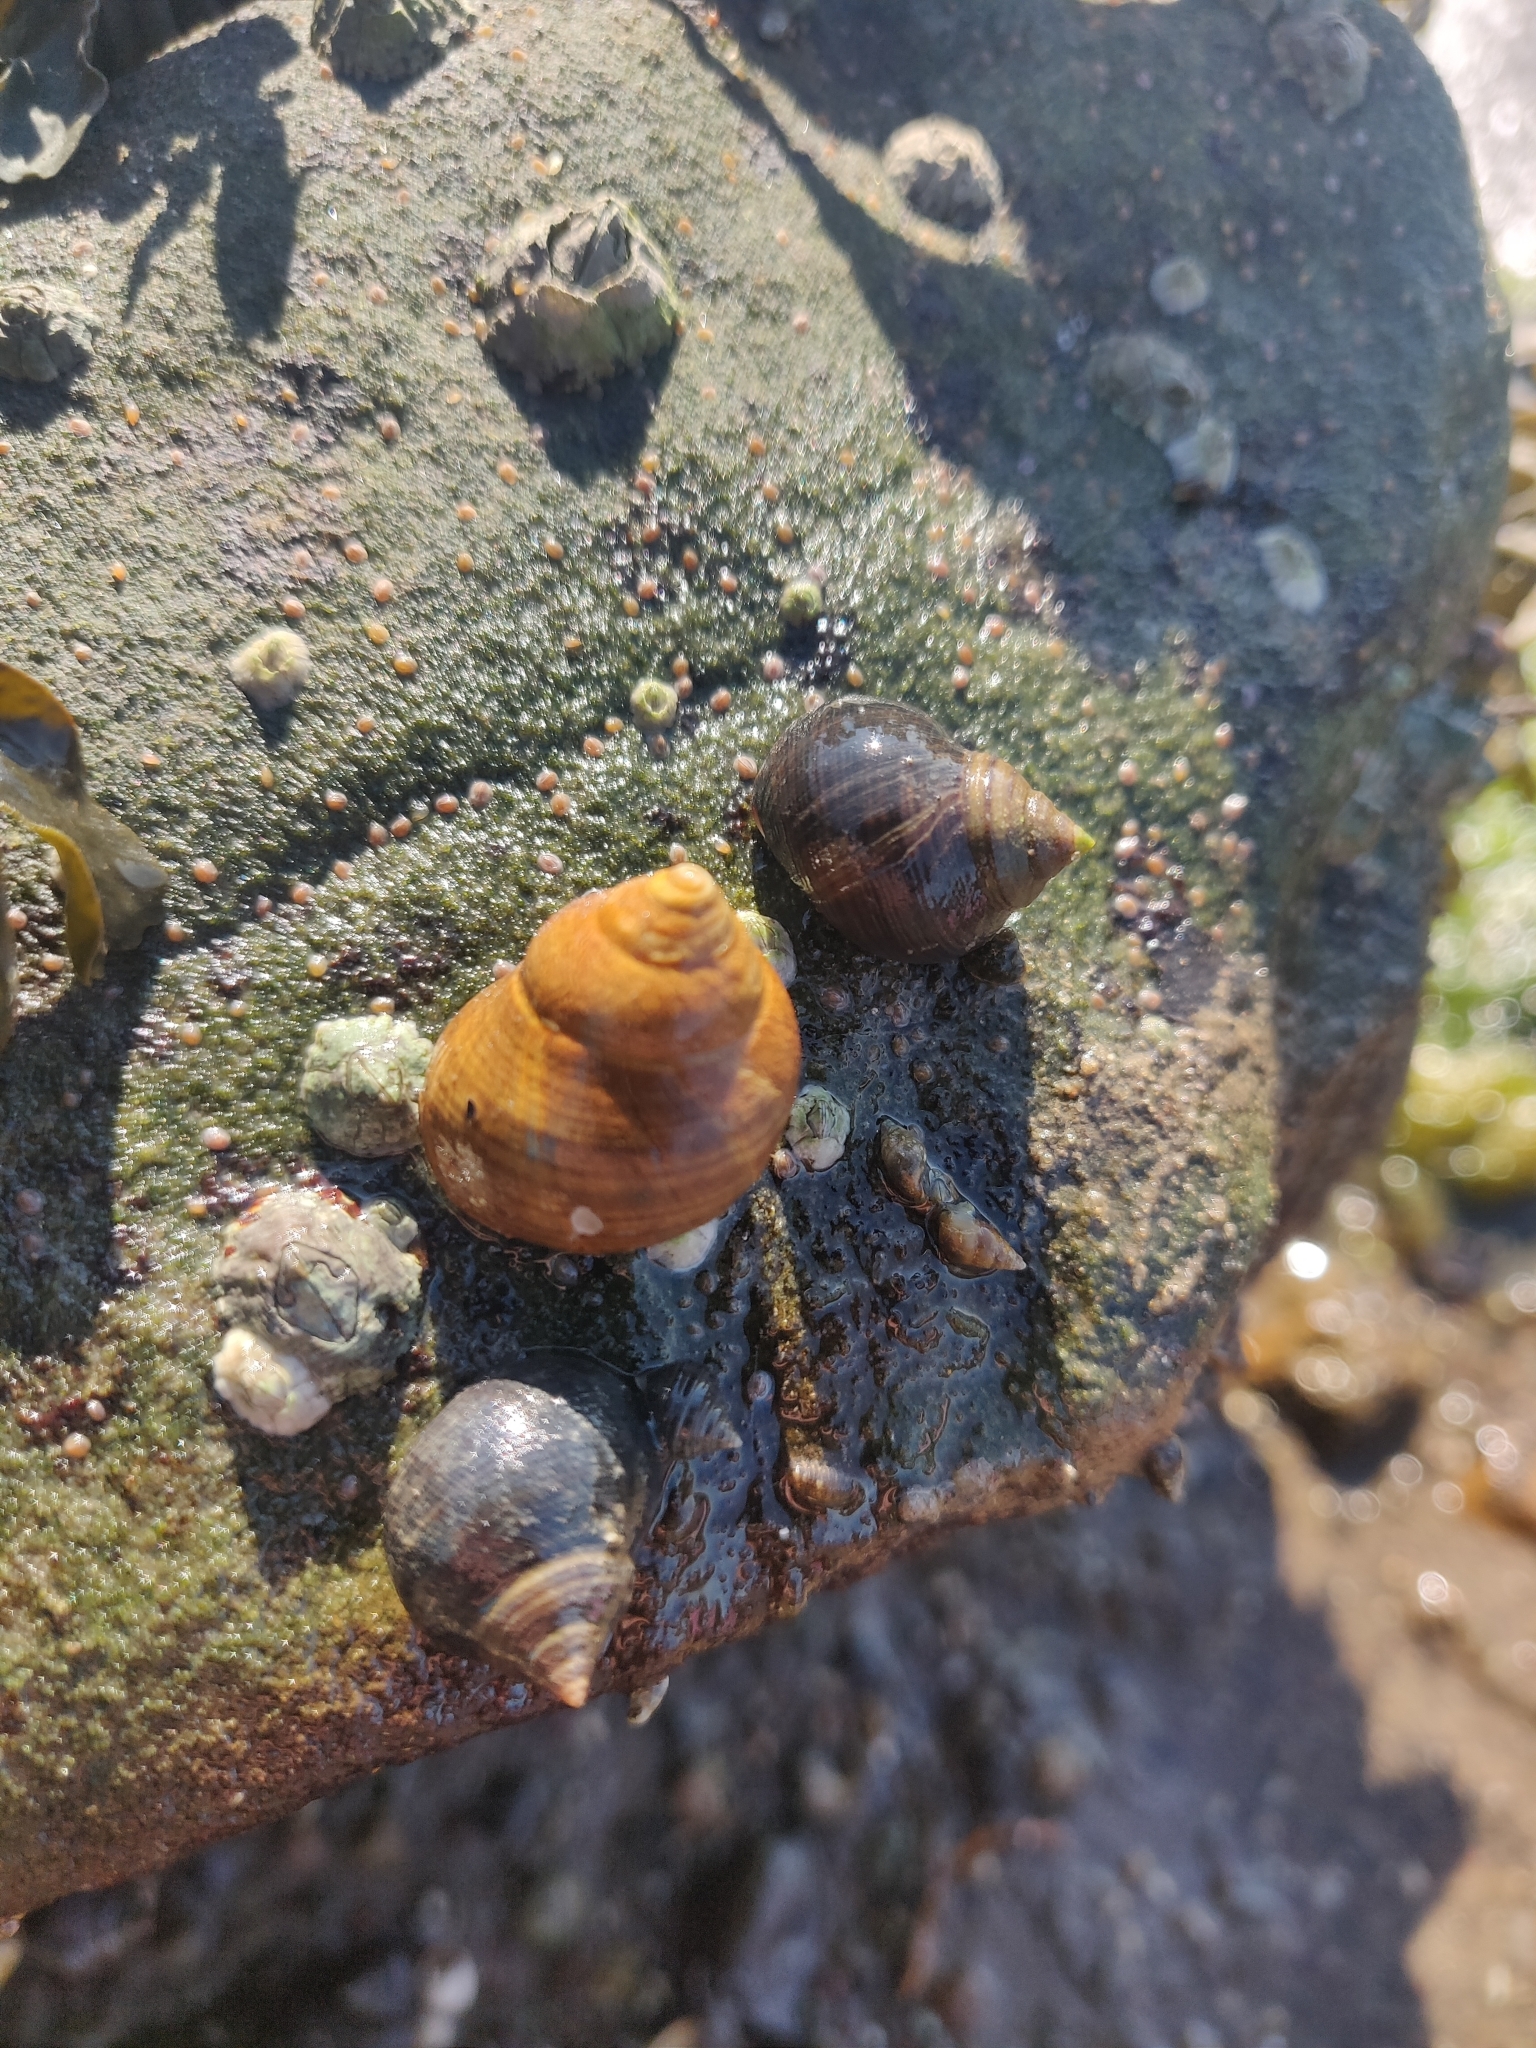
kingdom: Animalia
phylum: Mollusca
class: Gastropoda
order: Littorinimorpha
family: Littorinidae
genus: Littorina
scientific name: Littorina littorea
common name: Common periwinkle
